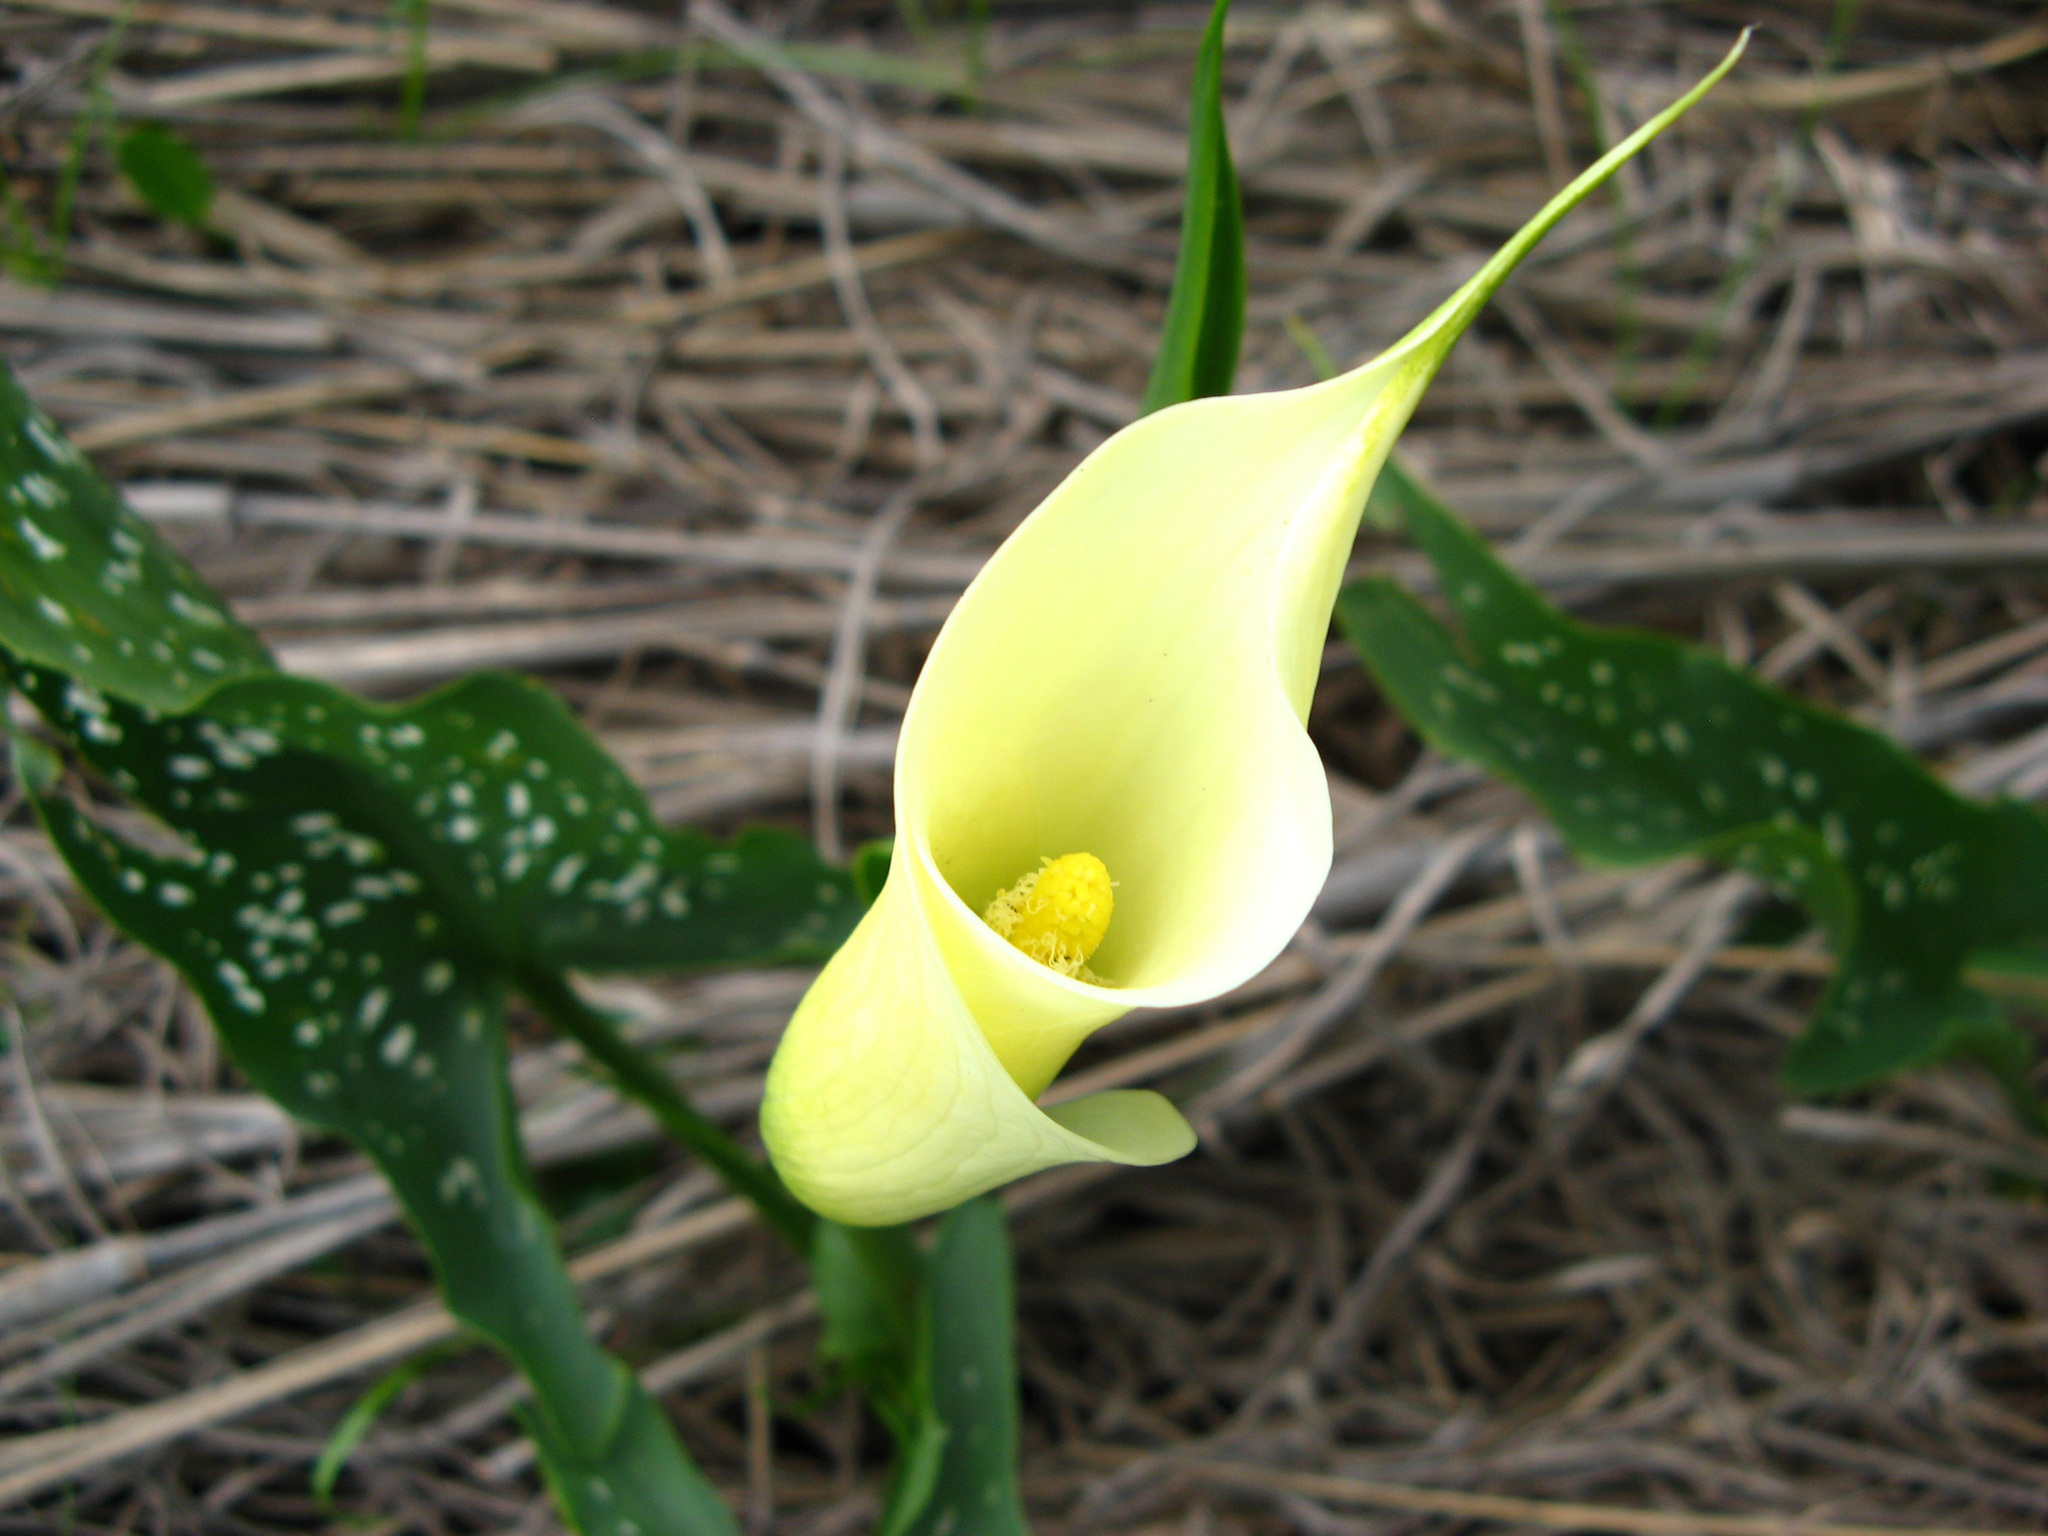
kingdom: Plantae
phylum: Tracheophyta
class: Liliopsida
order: Alismatales
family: Araceae
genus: Zantedeschia
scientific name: Zantedeschia albomaculata
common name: Spotted calla lily
